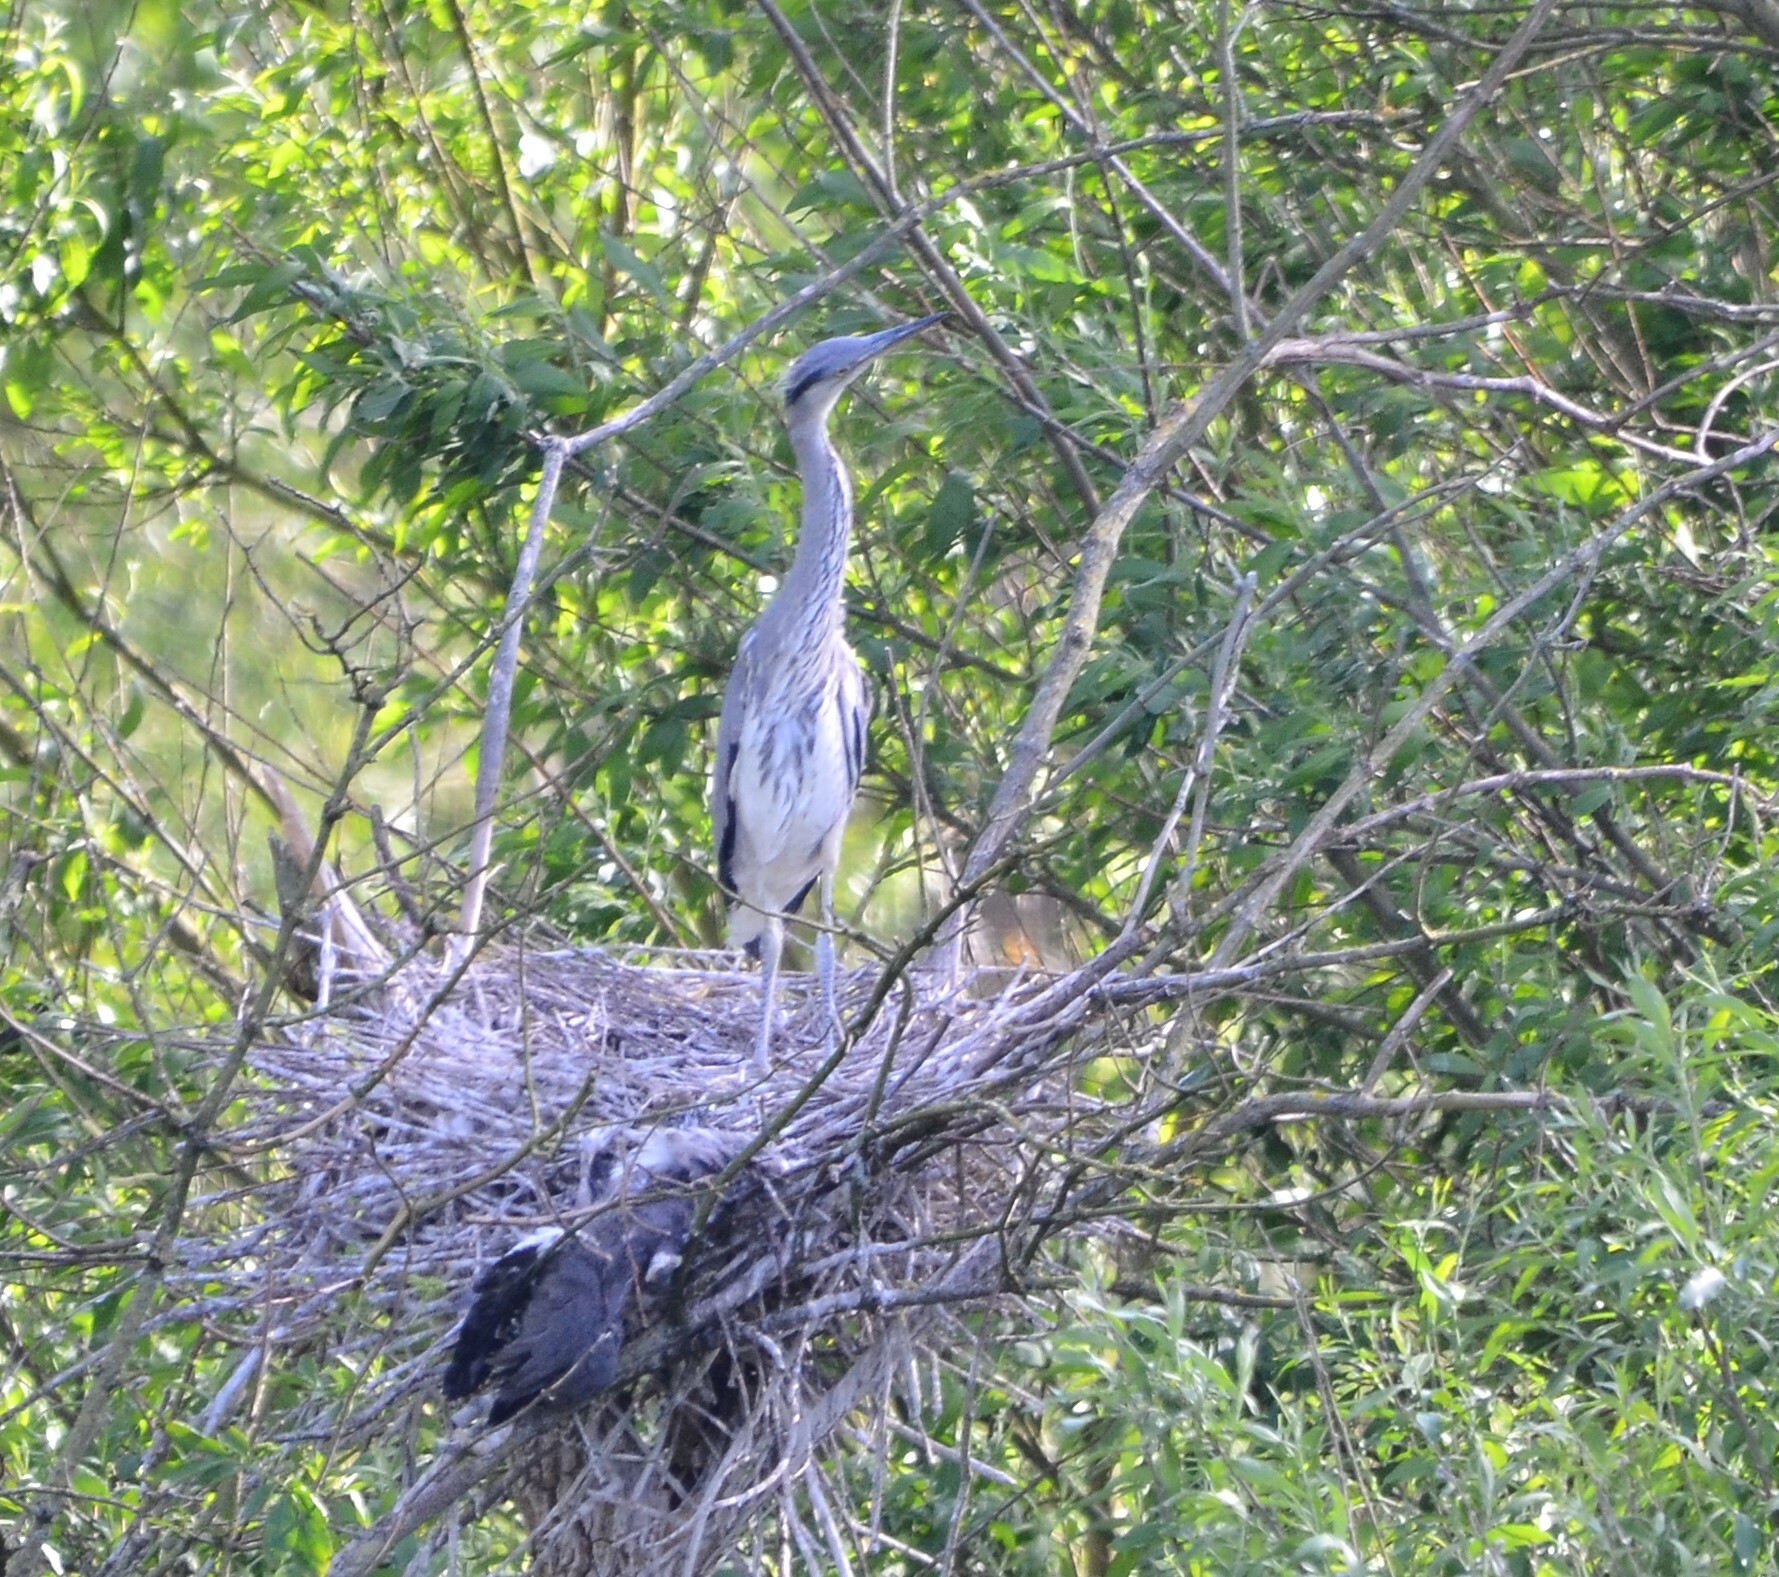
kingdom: Animalia
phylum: Chordata
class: Aves
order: Pelecaniformes
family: Ardeidae
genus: Ardea
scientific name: Ardea cinerea
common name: Grey heron
